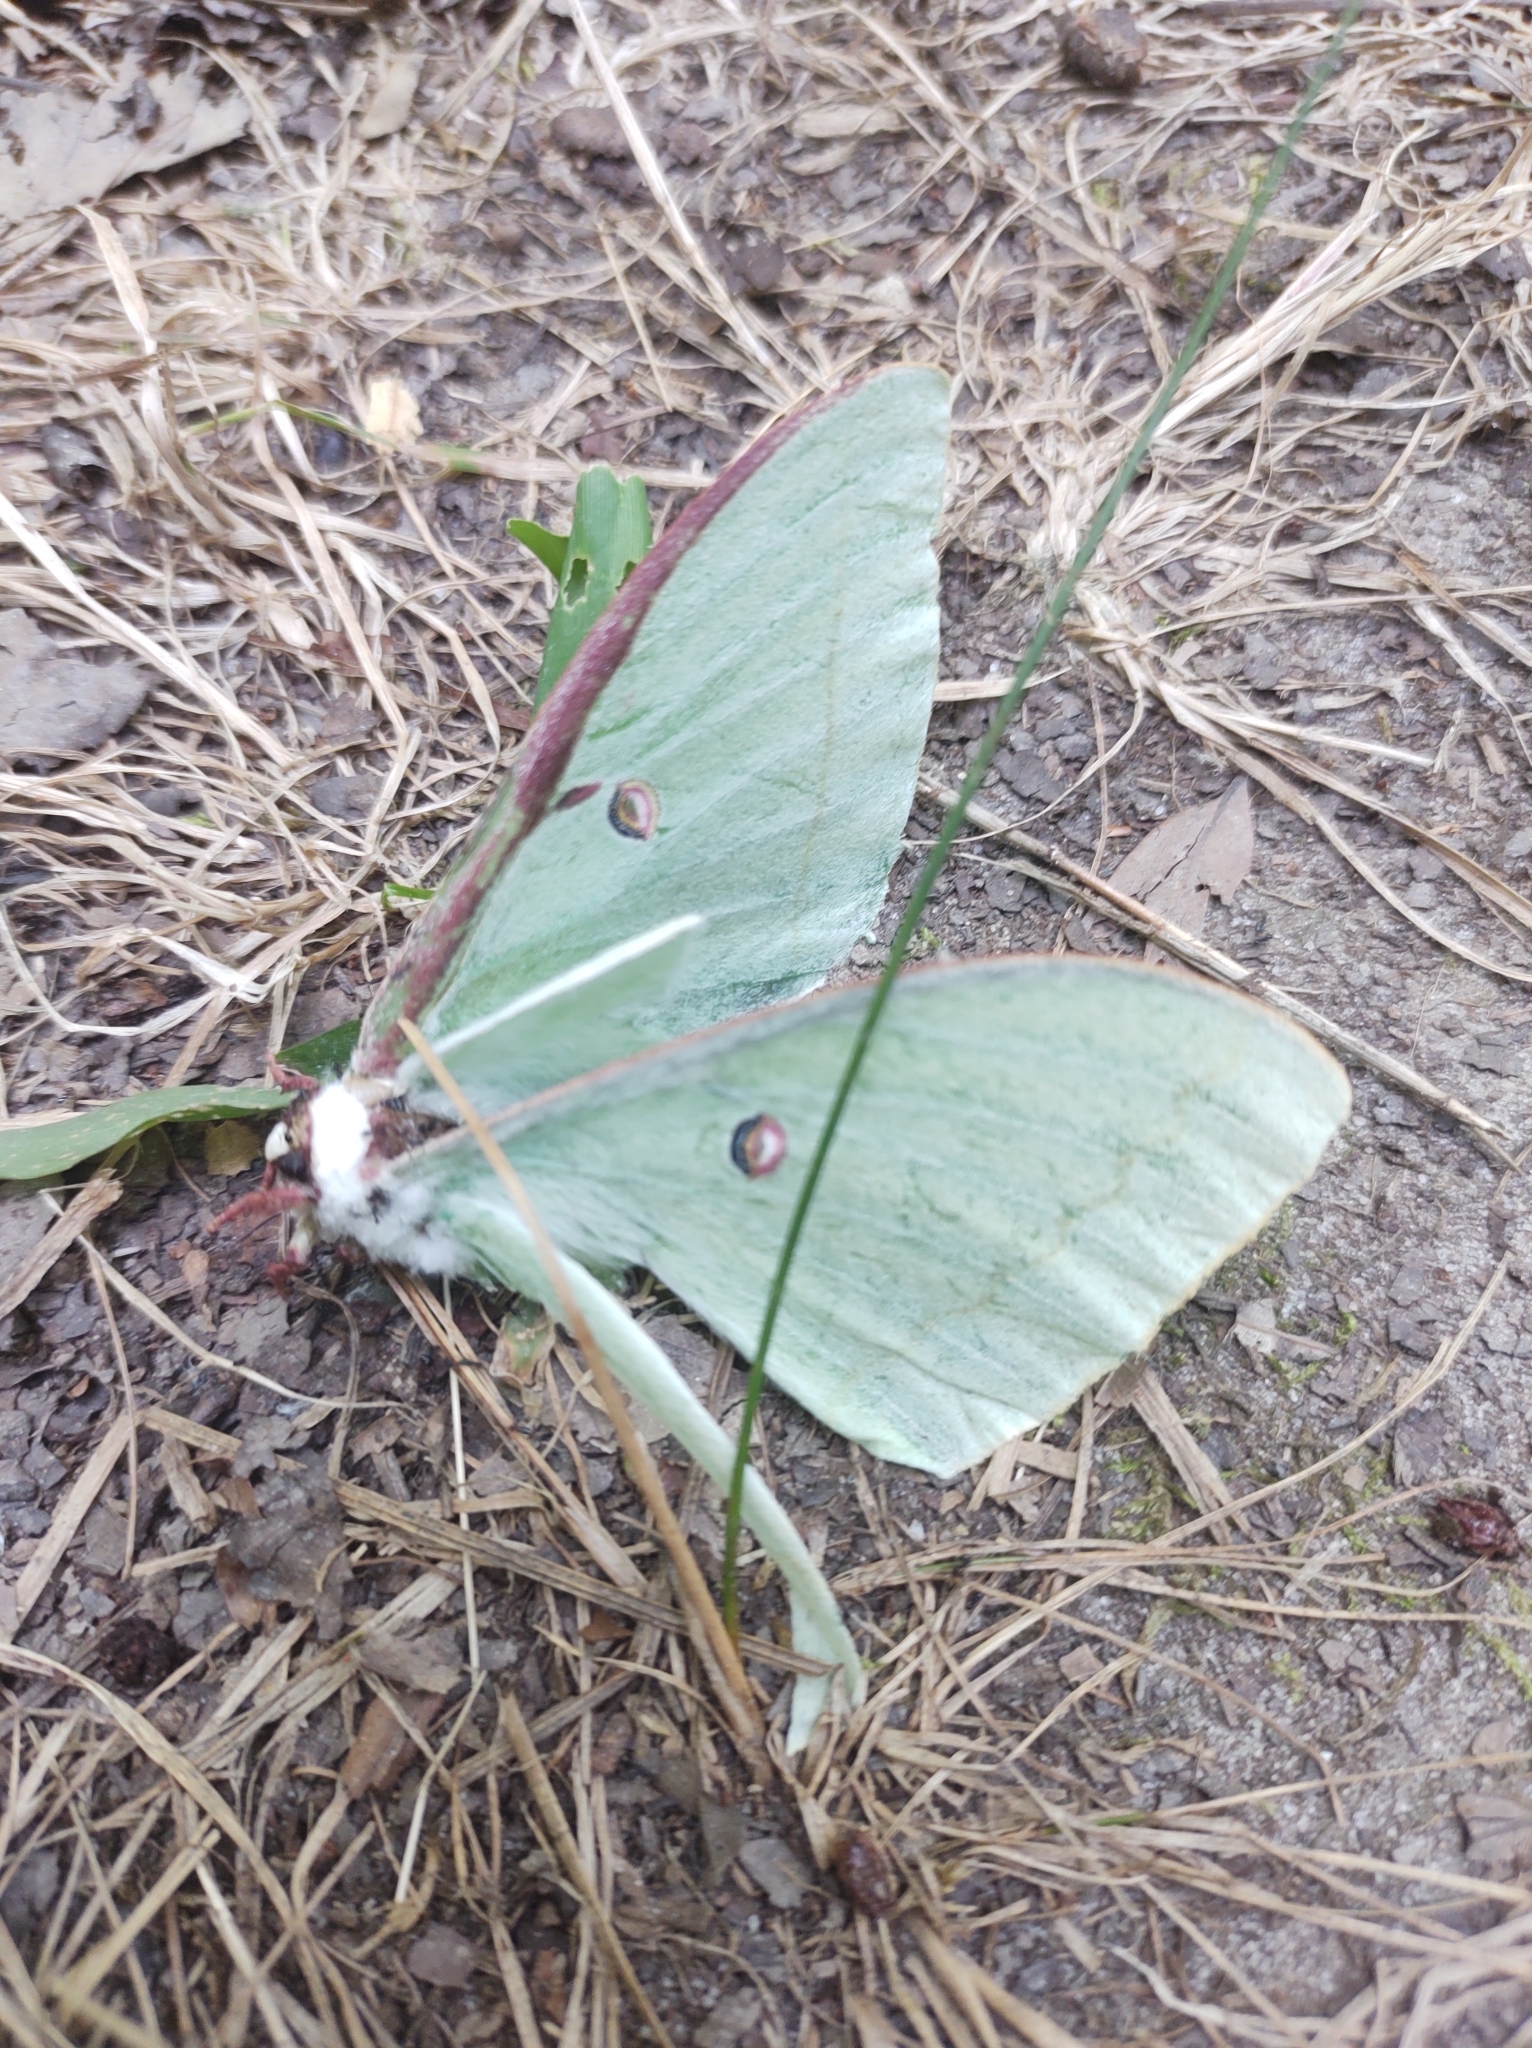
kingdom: Animalia
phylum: Arthropoda
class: Insecta
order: Lepidoptera
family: Saturniidae
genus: Actias
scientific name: Actias luna
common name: Luna moth
